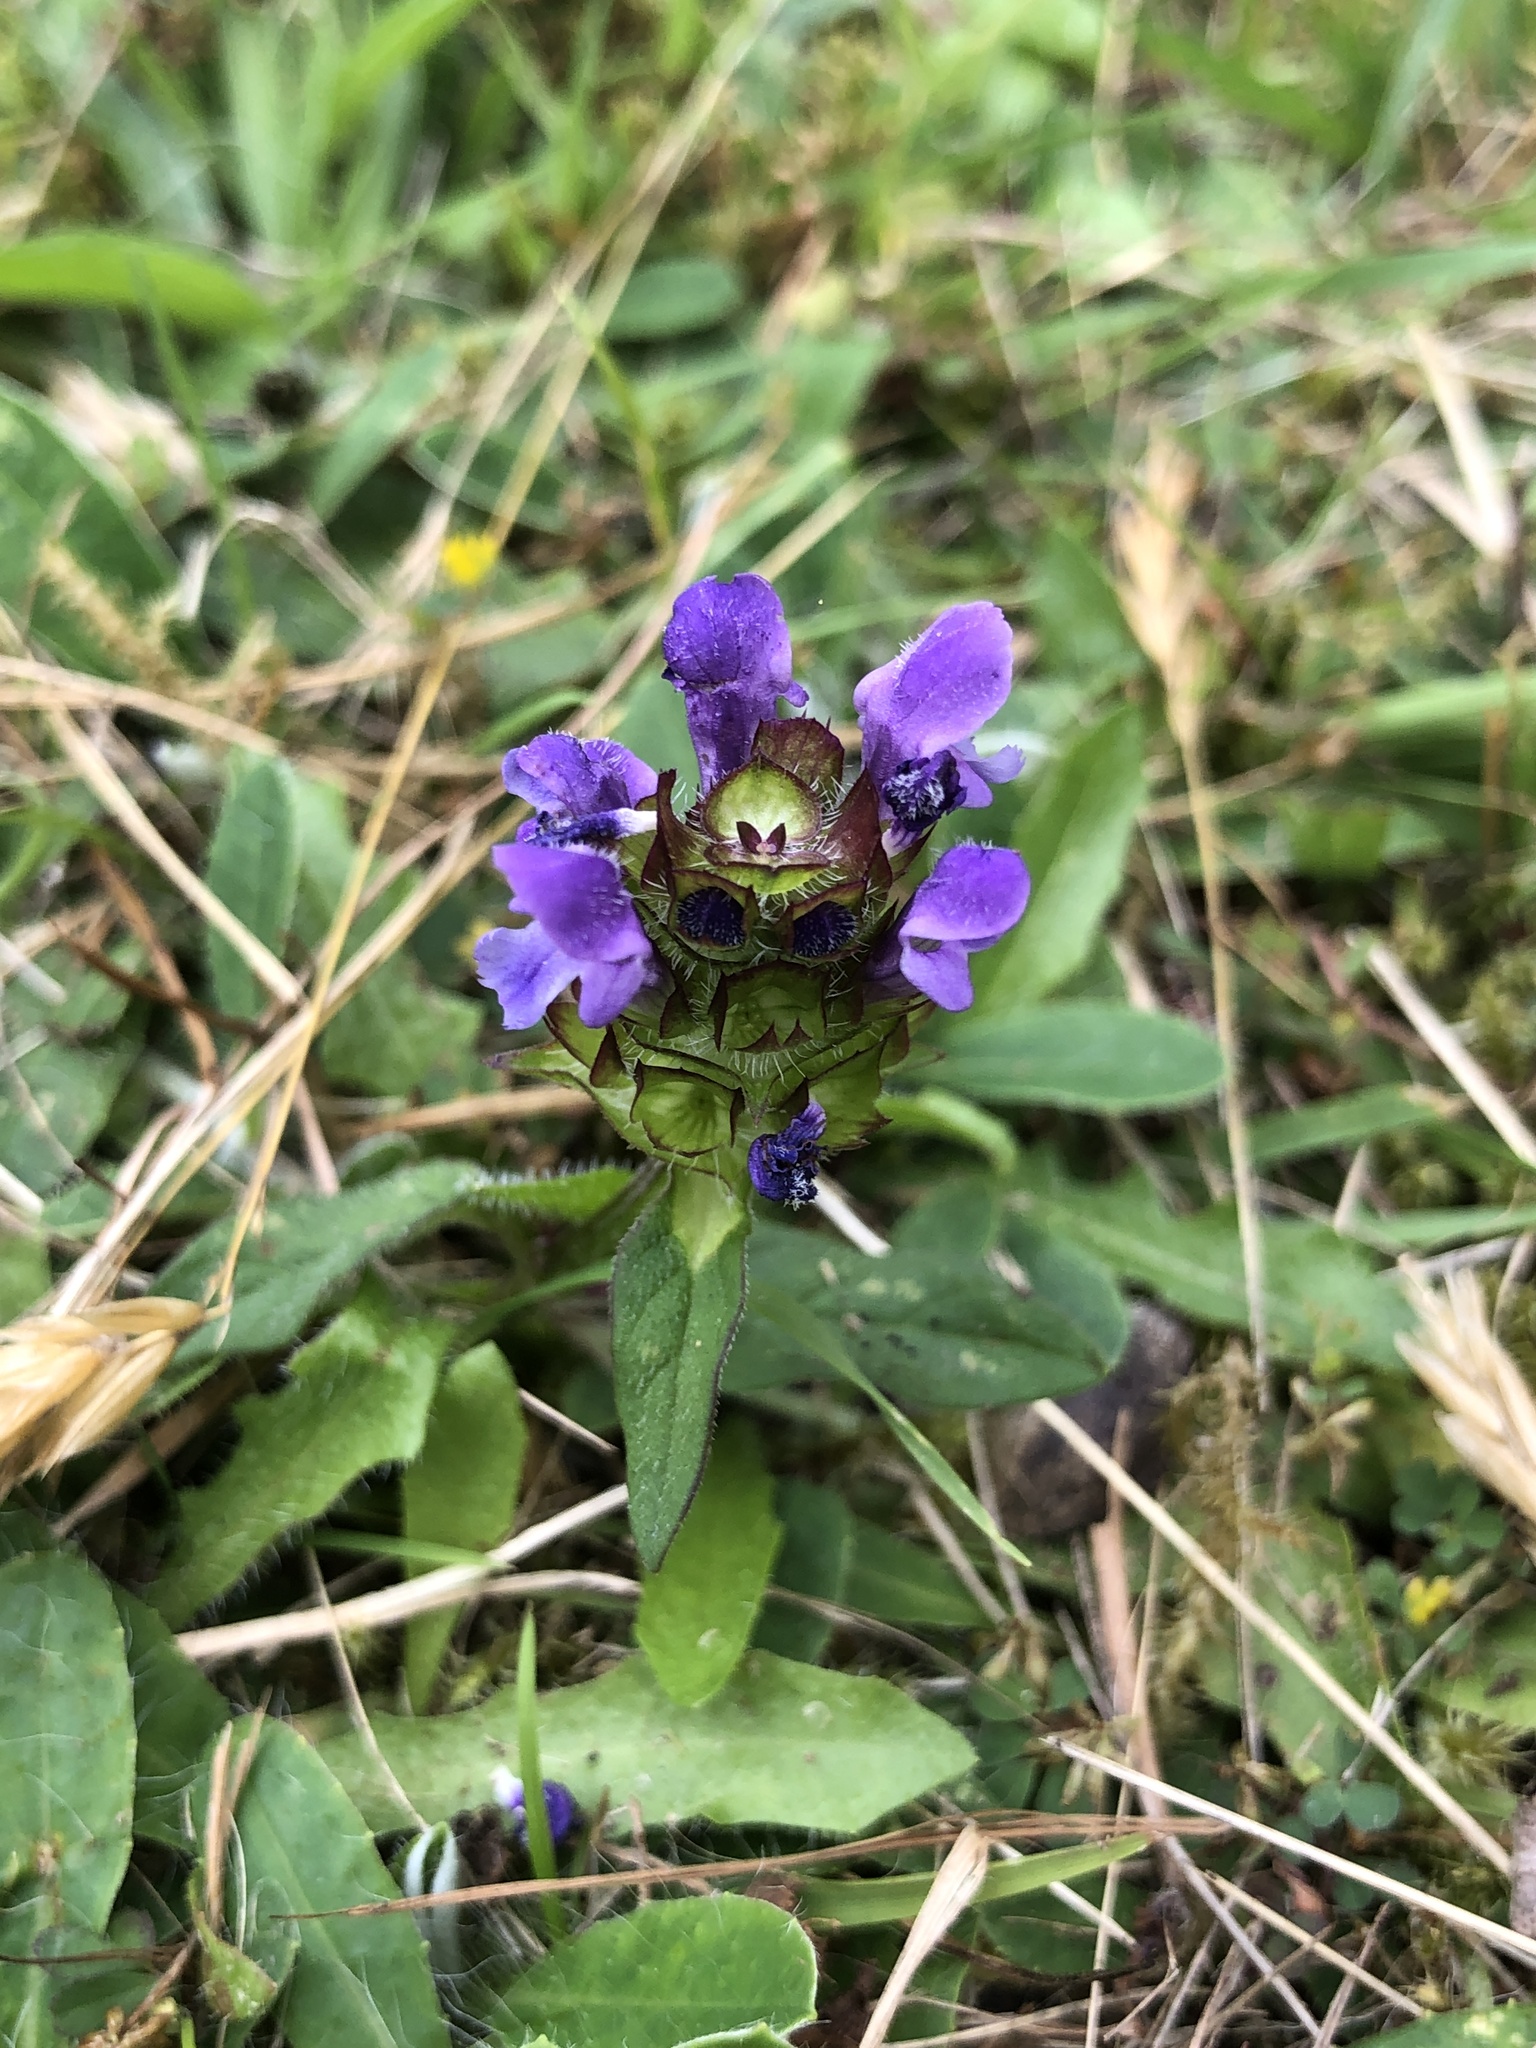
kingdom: Plantae
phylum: Tracheophyta
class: Magnoliopsida
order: Lamiales
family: Lamiaceae
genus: Prunella
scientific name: Prunella vulgaris
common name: Heal-all
